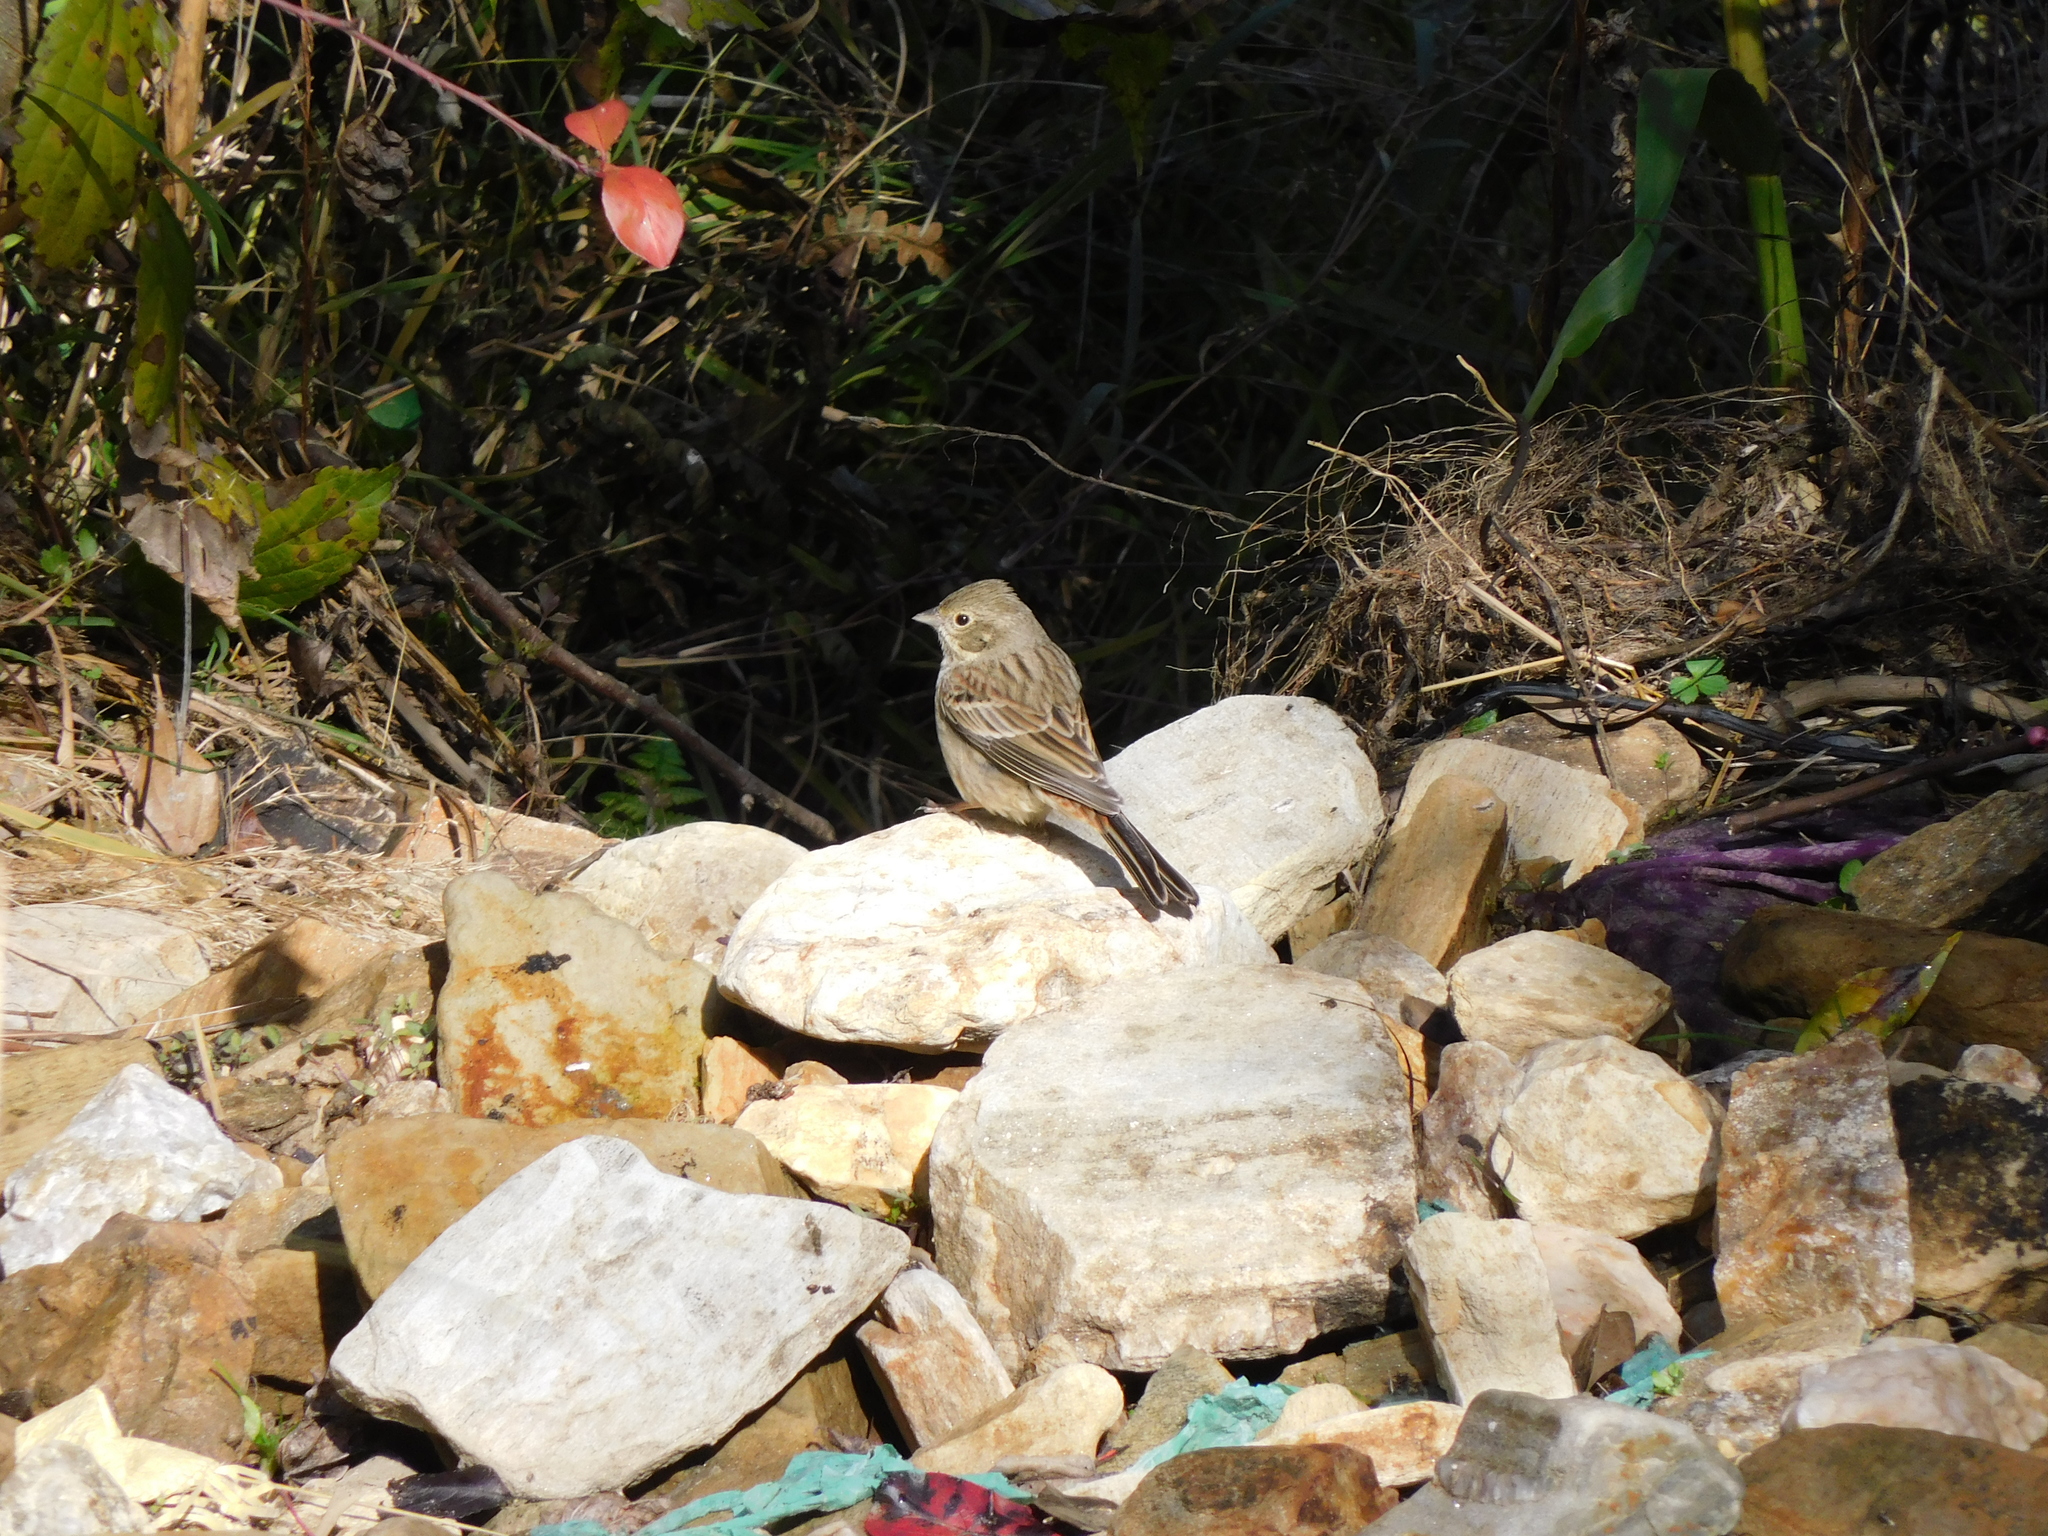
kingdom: Animalia
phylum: Chordata
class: Aves
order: Passeriformes
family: Emberizidae
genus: Emberiza
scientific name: Emberiza stewarti
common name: White-capped bunting
